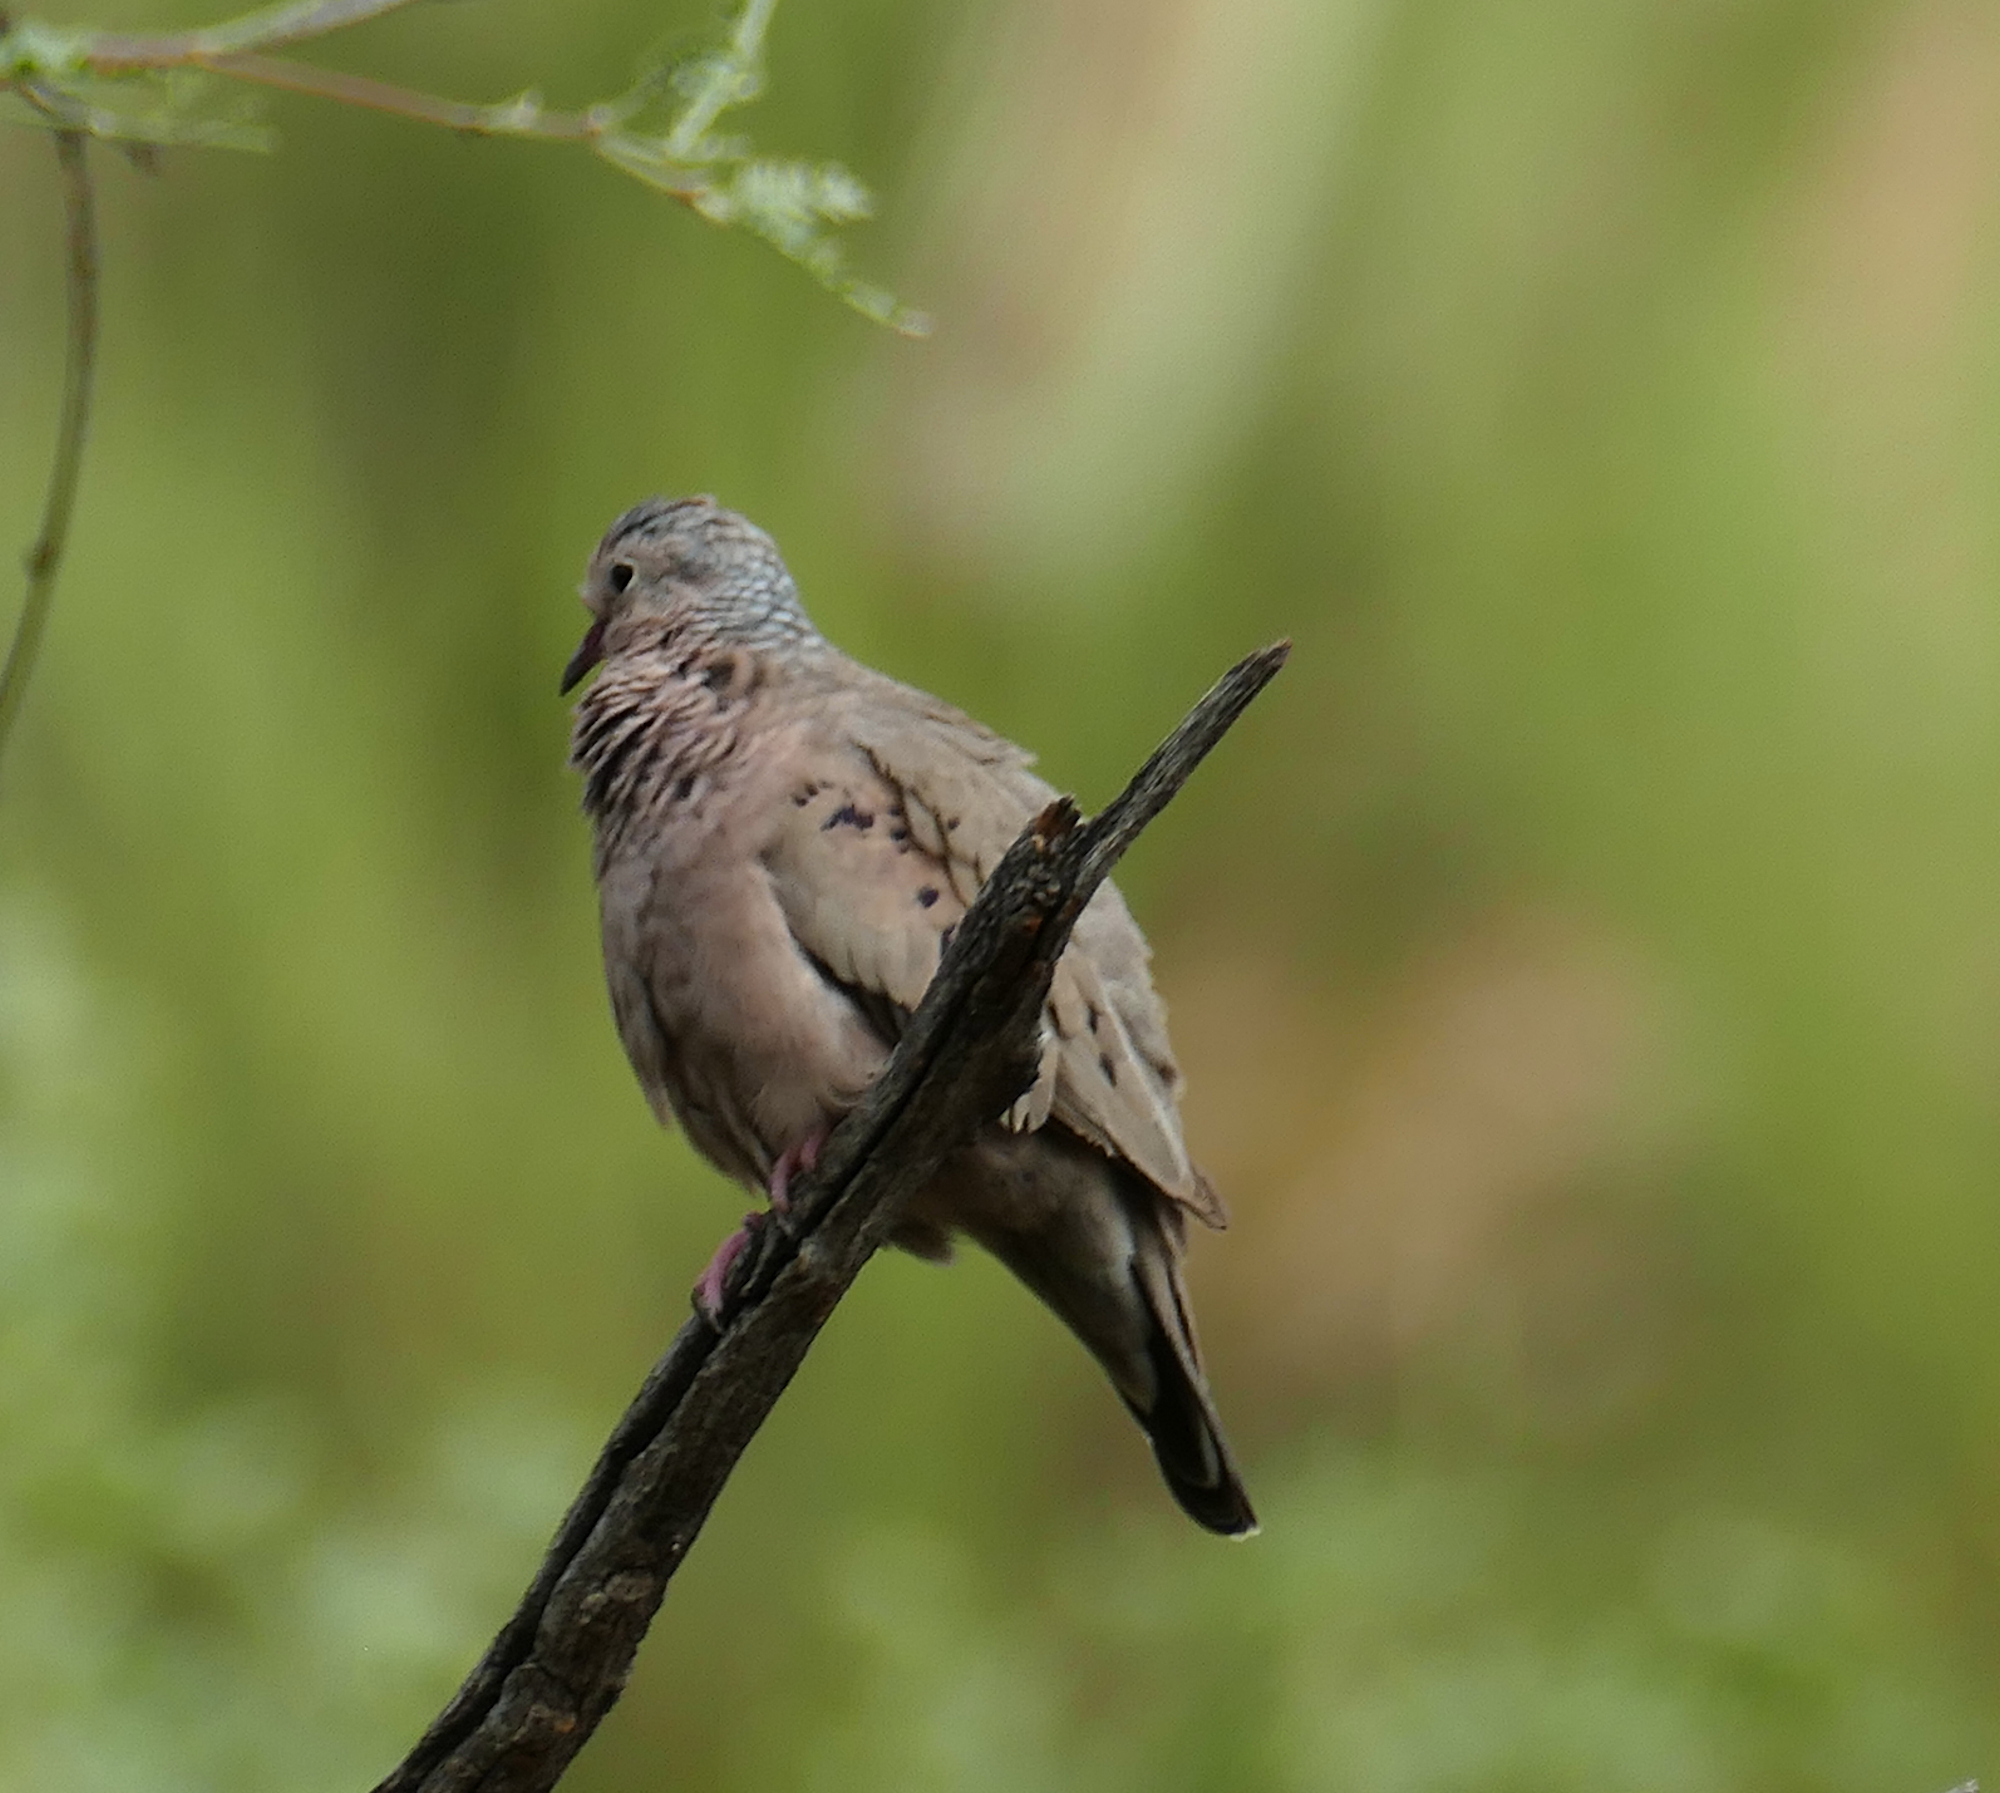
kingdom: Animalia
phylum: Chordata
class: Aves
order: Columbiformes
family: Columbidae
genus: Columbina
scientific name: Columbina passerina
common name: Common ground-dove
